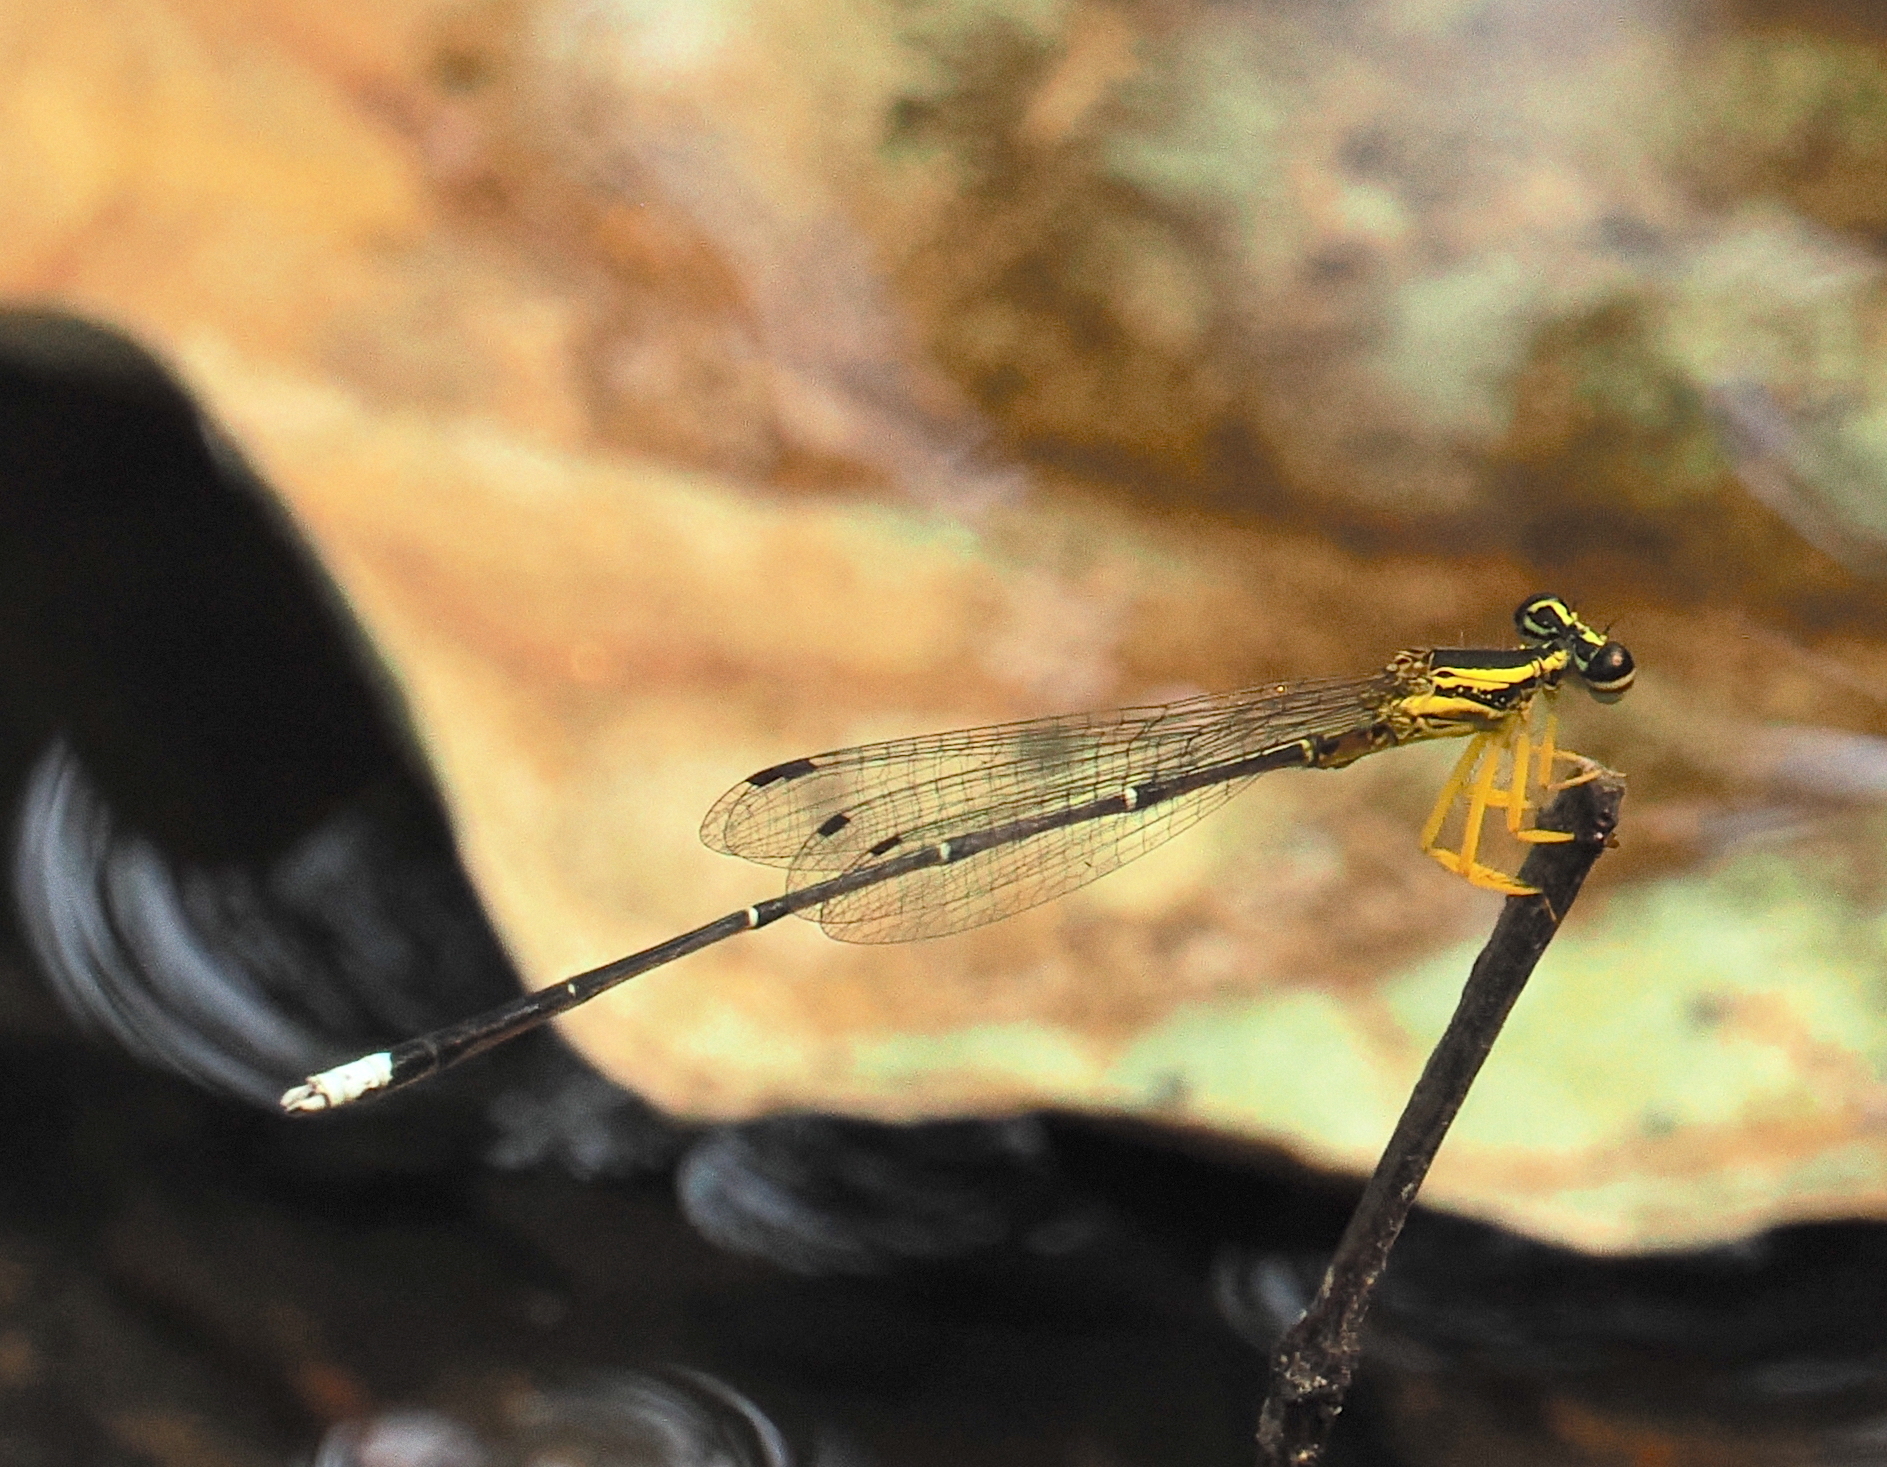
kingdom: Animalia
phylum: Arthropoda
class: Insecta
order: Odonata
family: Platycnemididae
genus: Copera
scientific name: Copera marginipes
